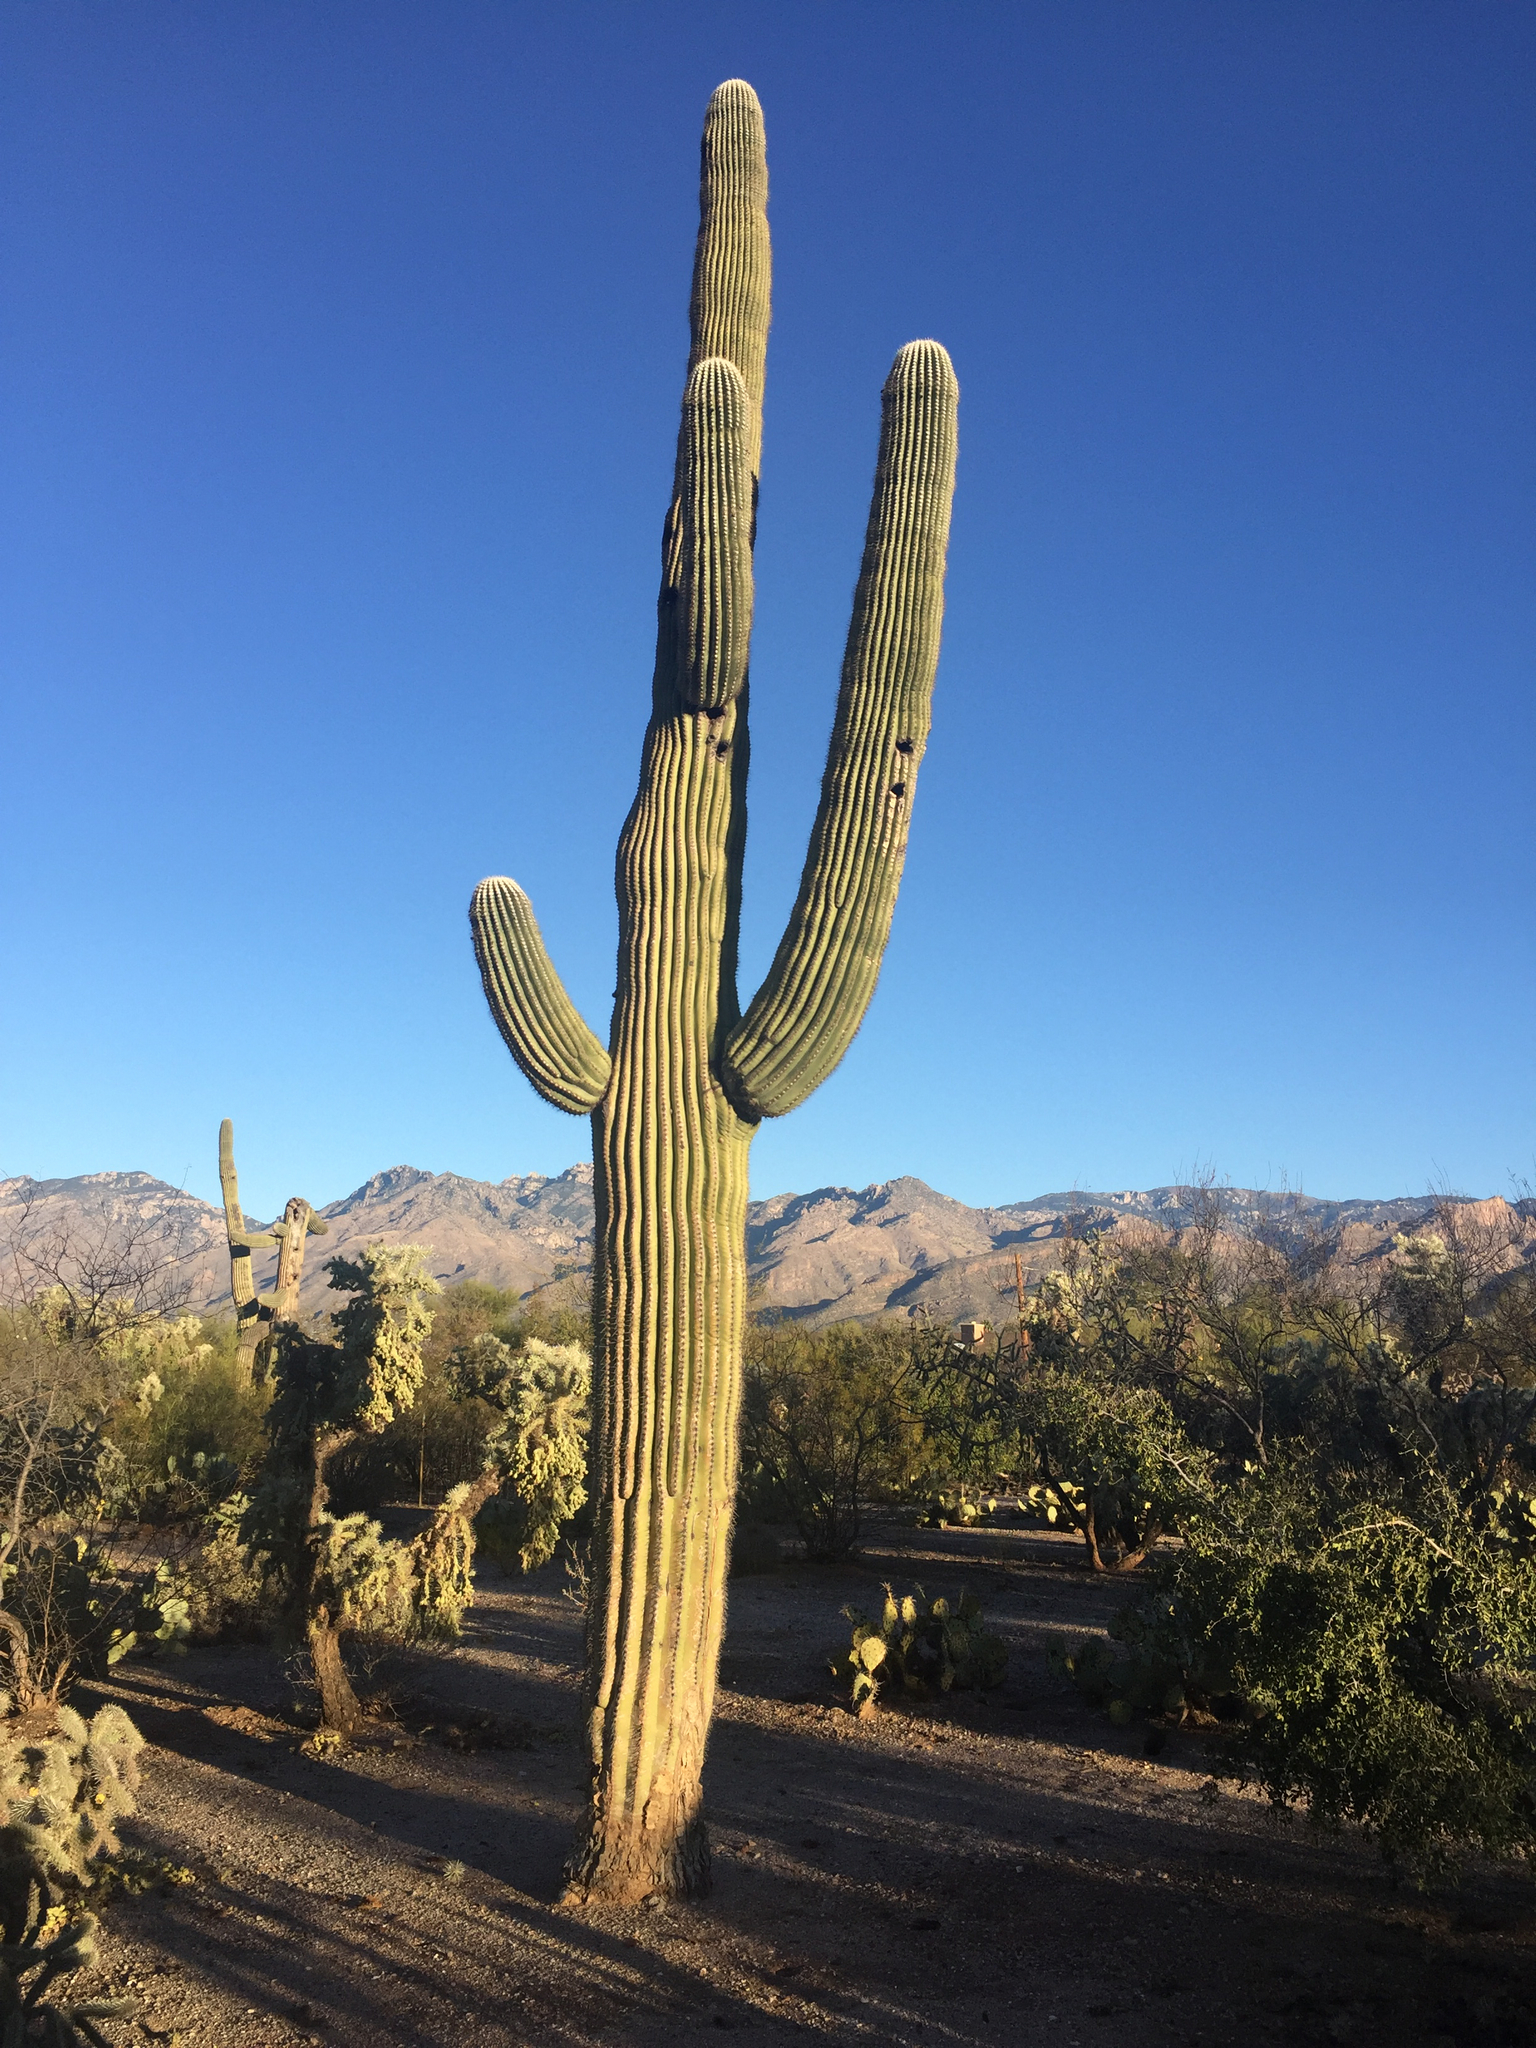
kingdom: Plantae
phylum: Tracheophyta
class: Magnoliopsida
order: Caryophyllales
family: Cactaceae
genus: Carnegiea
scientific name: Carnegiea gigantea
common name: Saguaro
